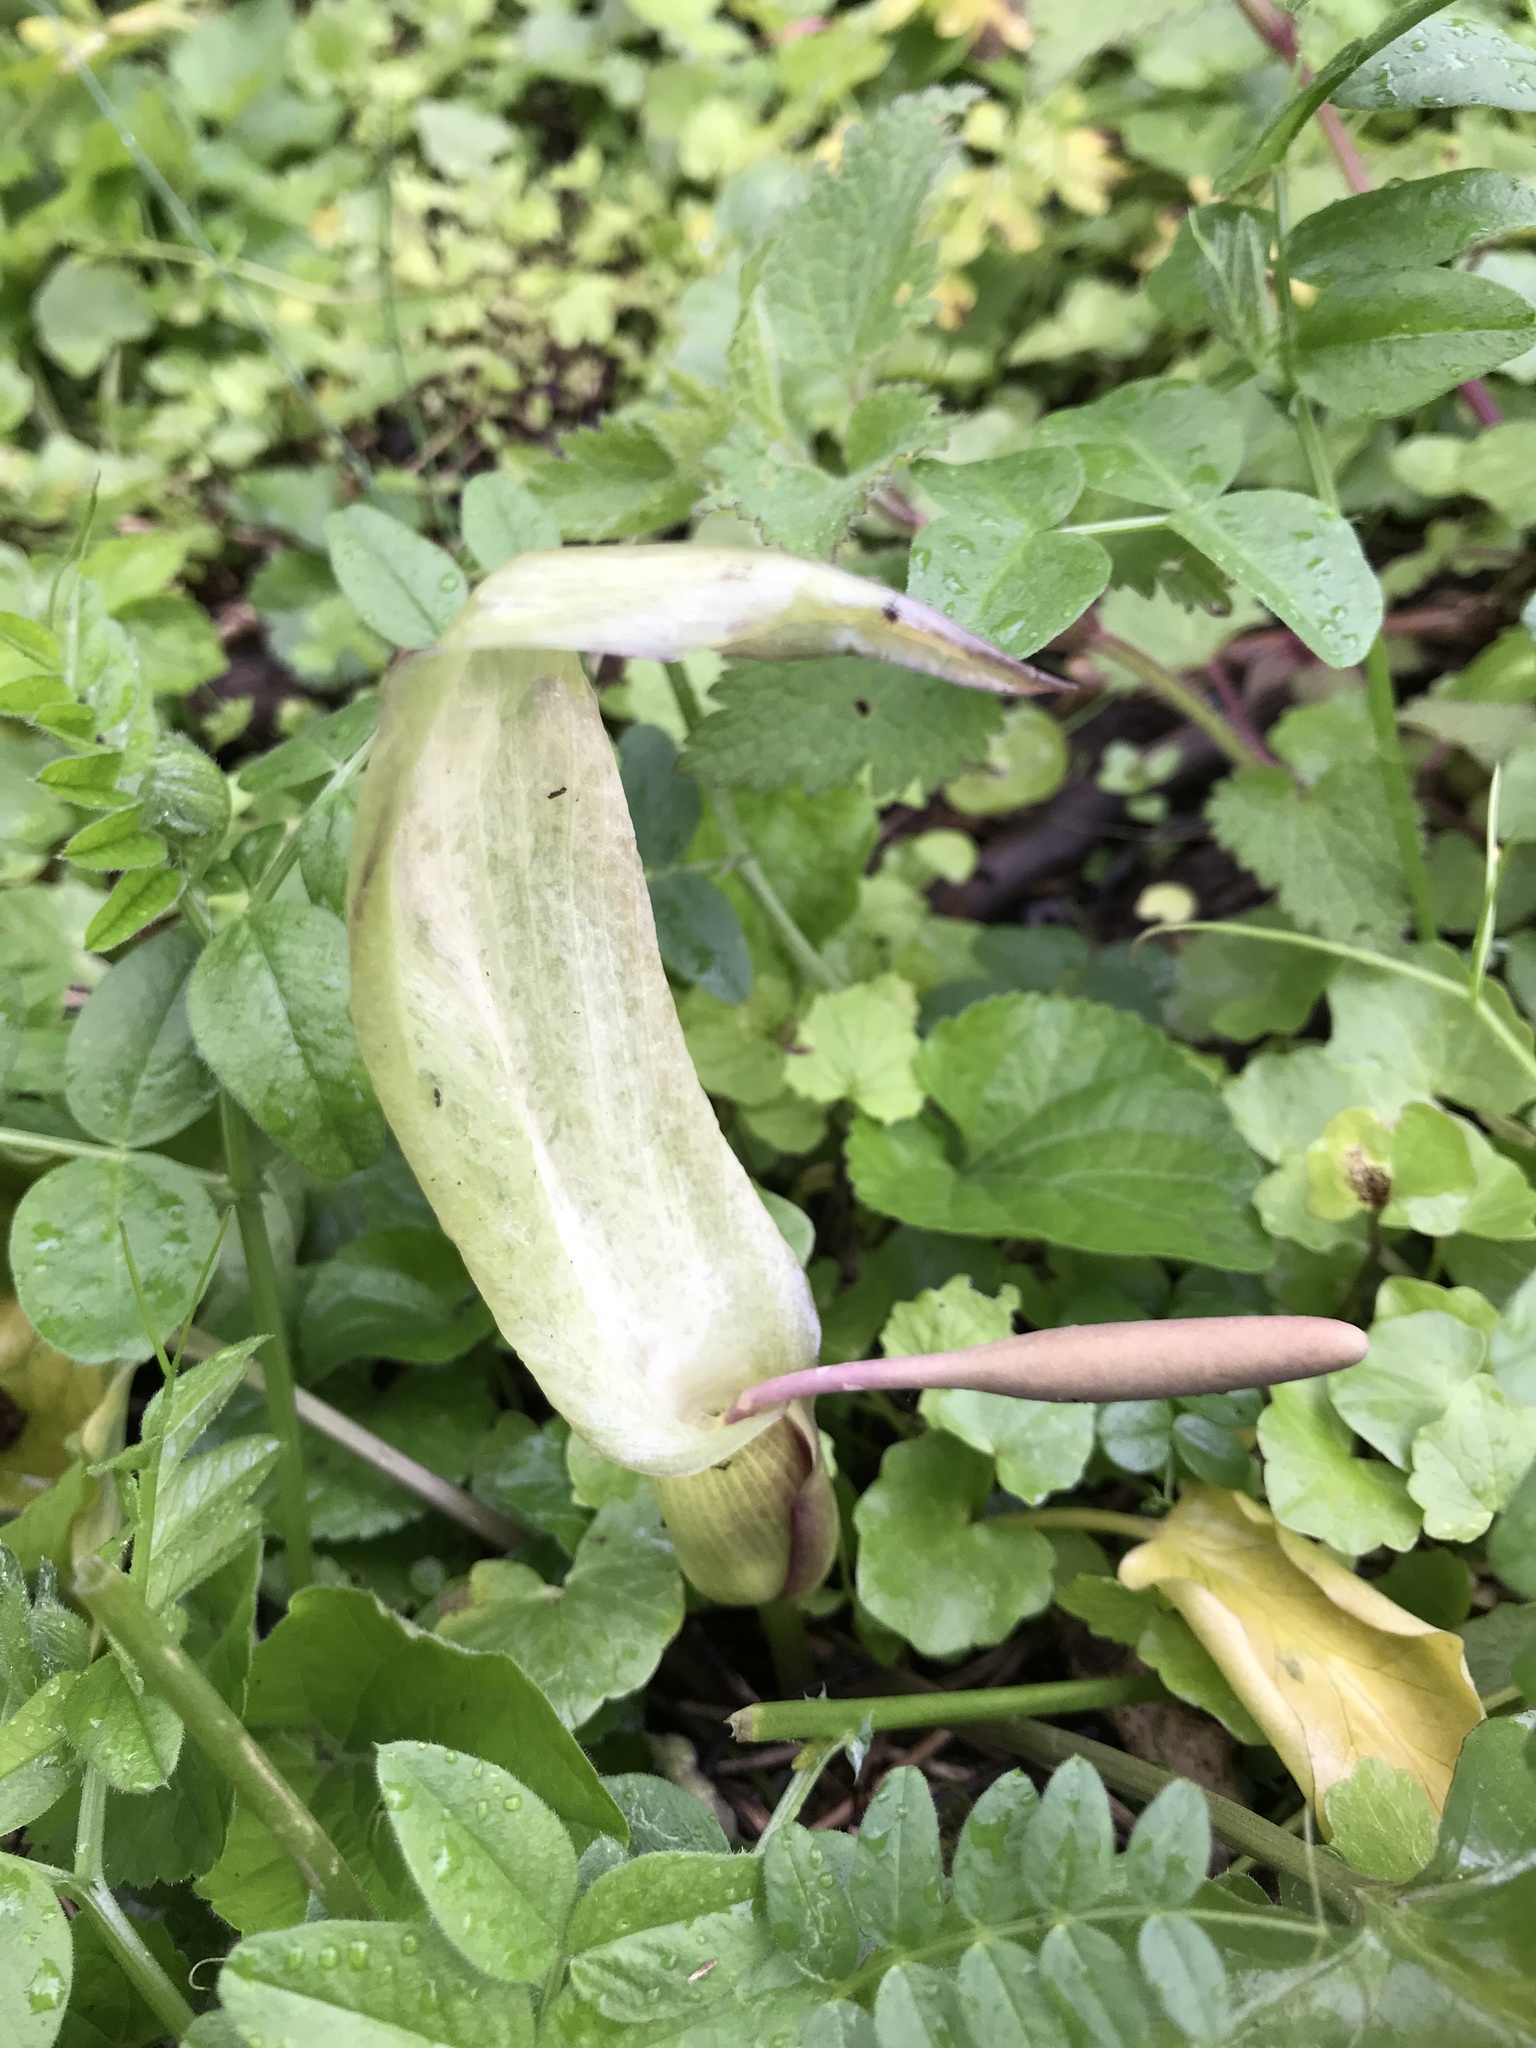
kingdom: Plantae
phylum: Tracheophyta
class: Liliopsida
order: Alismatales
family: Araceae
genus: Arum
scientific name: Arum maculatum
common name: Lords-and-ladies
